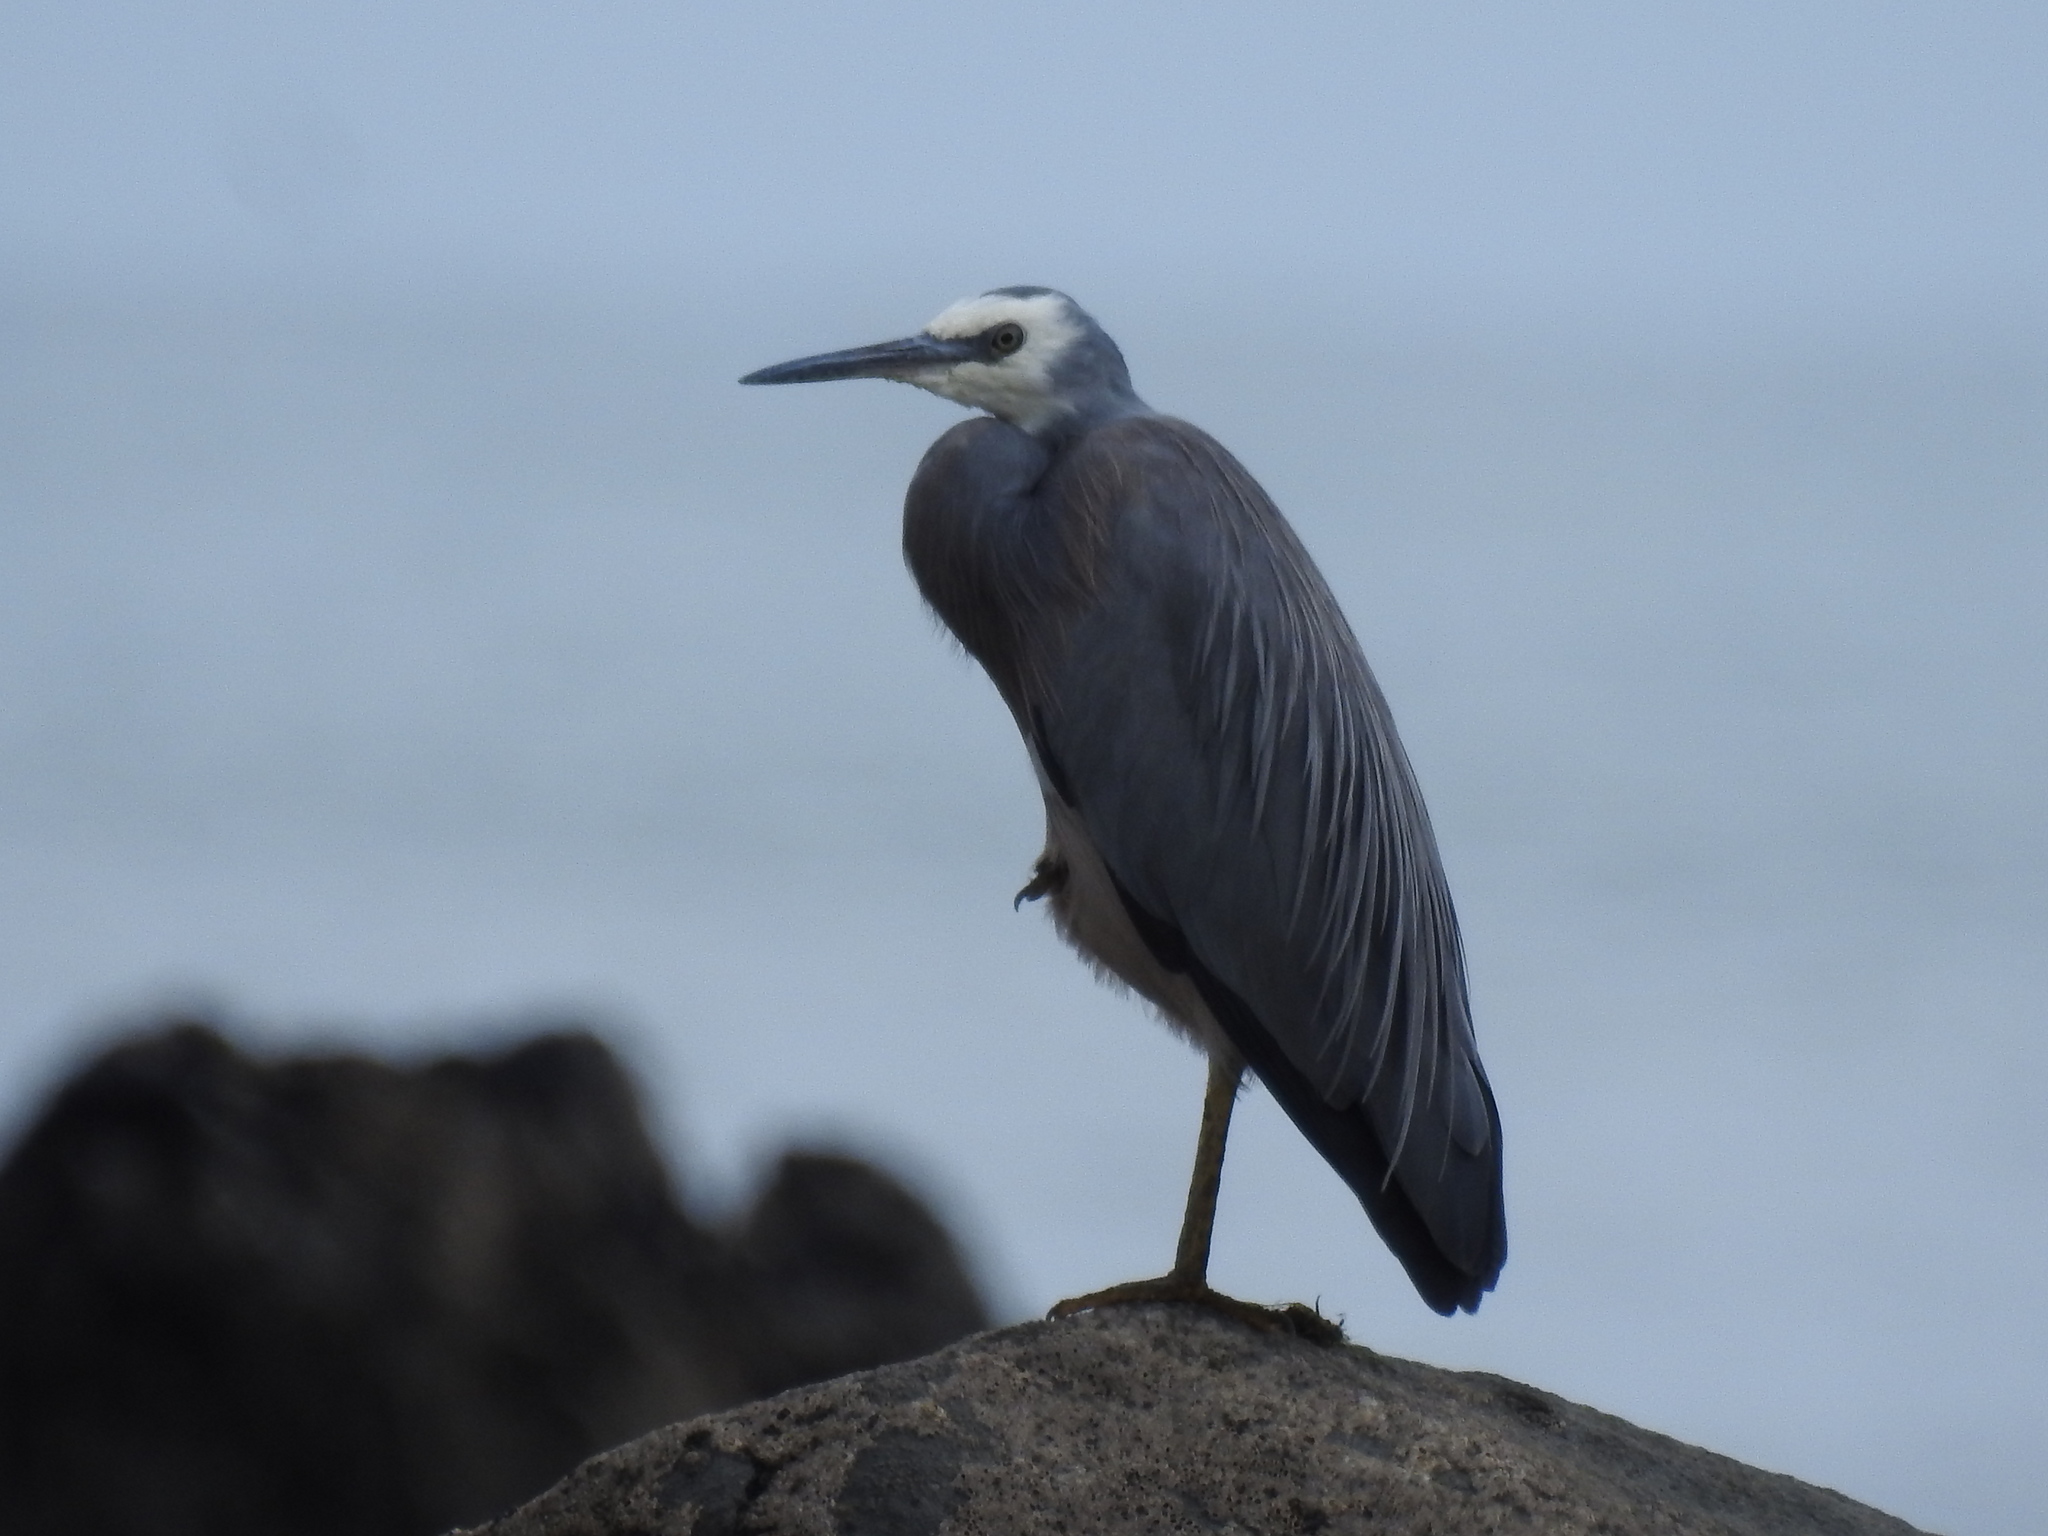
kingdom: Animalia
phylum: Chordata
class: Aves
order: Pelecaniformes
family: Ardeidae
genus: Egretta
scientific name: Egretta novaehollandiae
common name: White-faced heron
